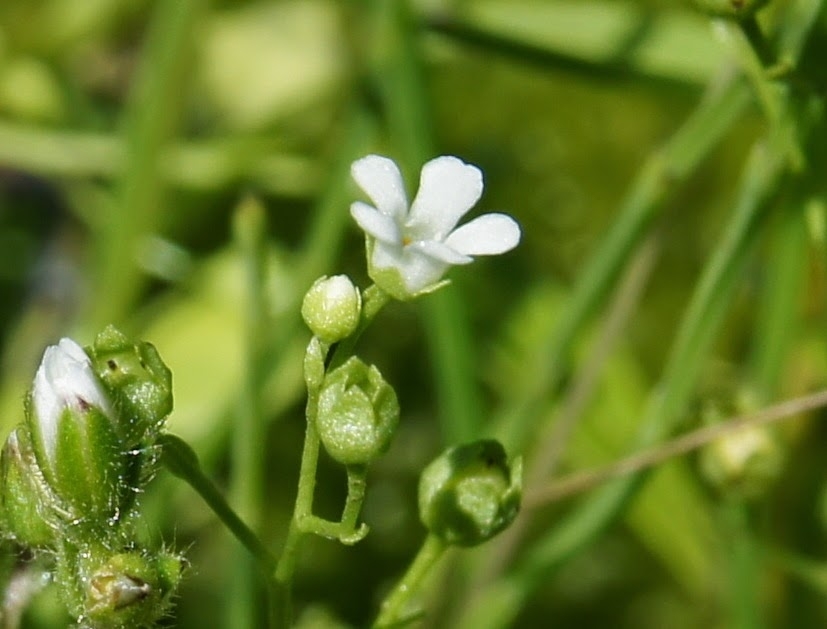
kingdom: Plantae
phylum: Tracheophyta
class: Magnoliopsida
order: Ericales
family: Primulaceae
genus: Samolus
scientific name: Samolus valerandi
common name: Brookweed
